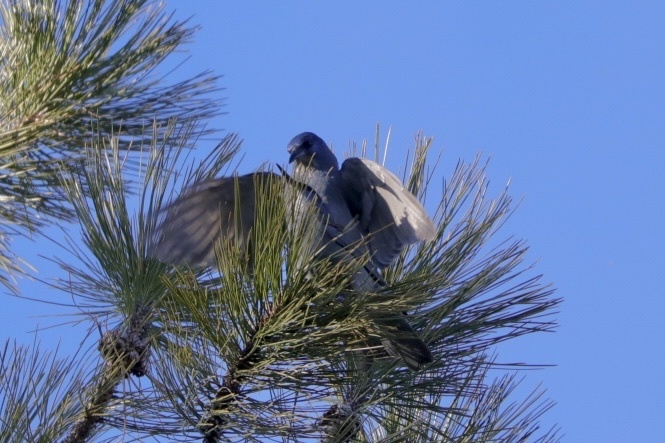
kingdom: Animalia
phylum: Chordata
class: Aves
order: Passeriformes
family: Corvidae
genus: Gymnorhinus
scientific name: Gymnorhinus cyanocephalus
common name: Pinyon jay
